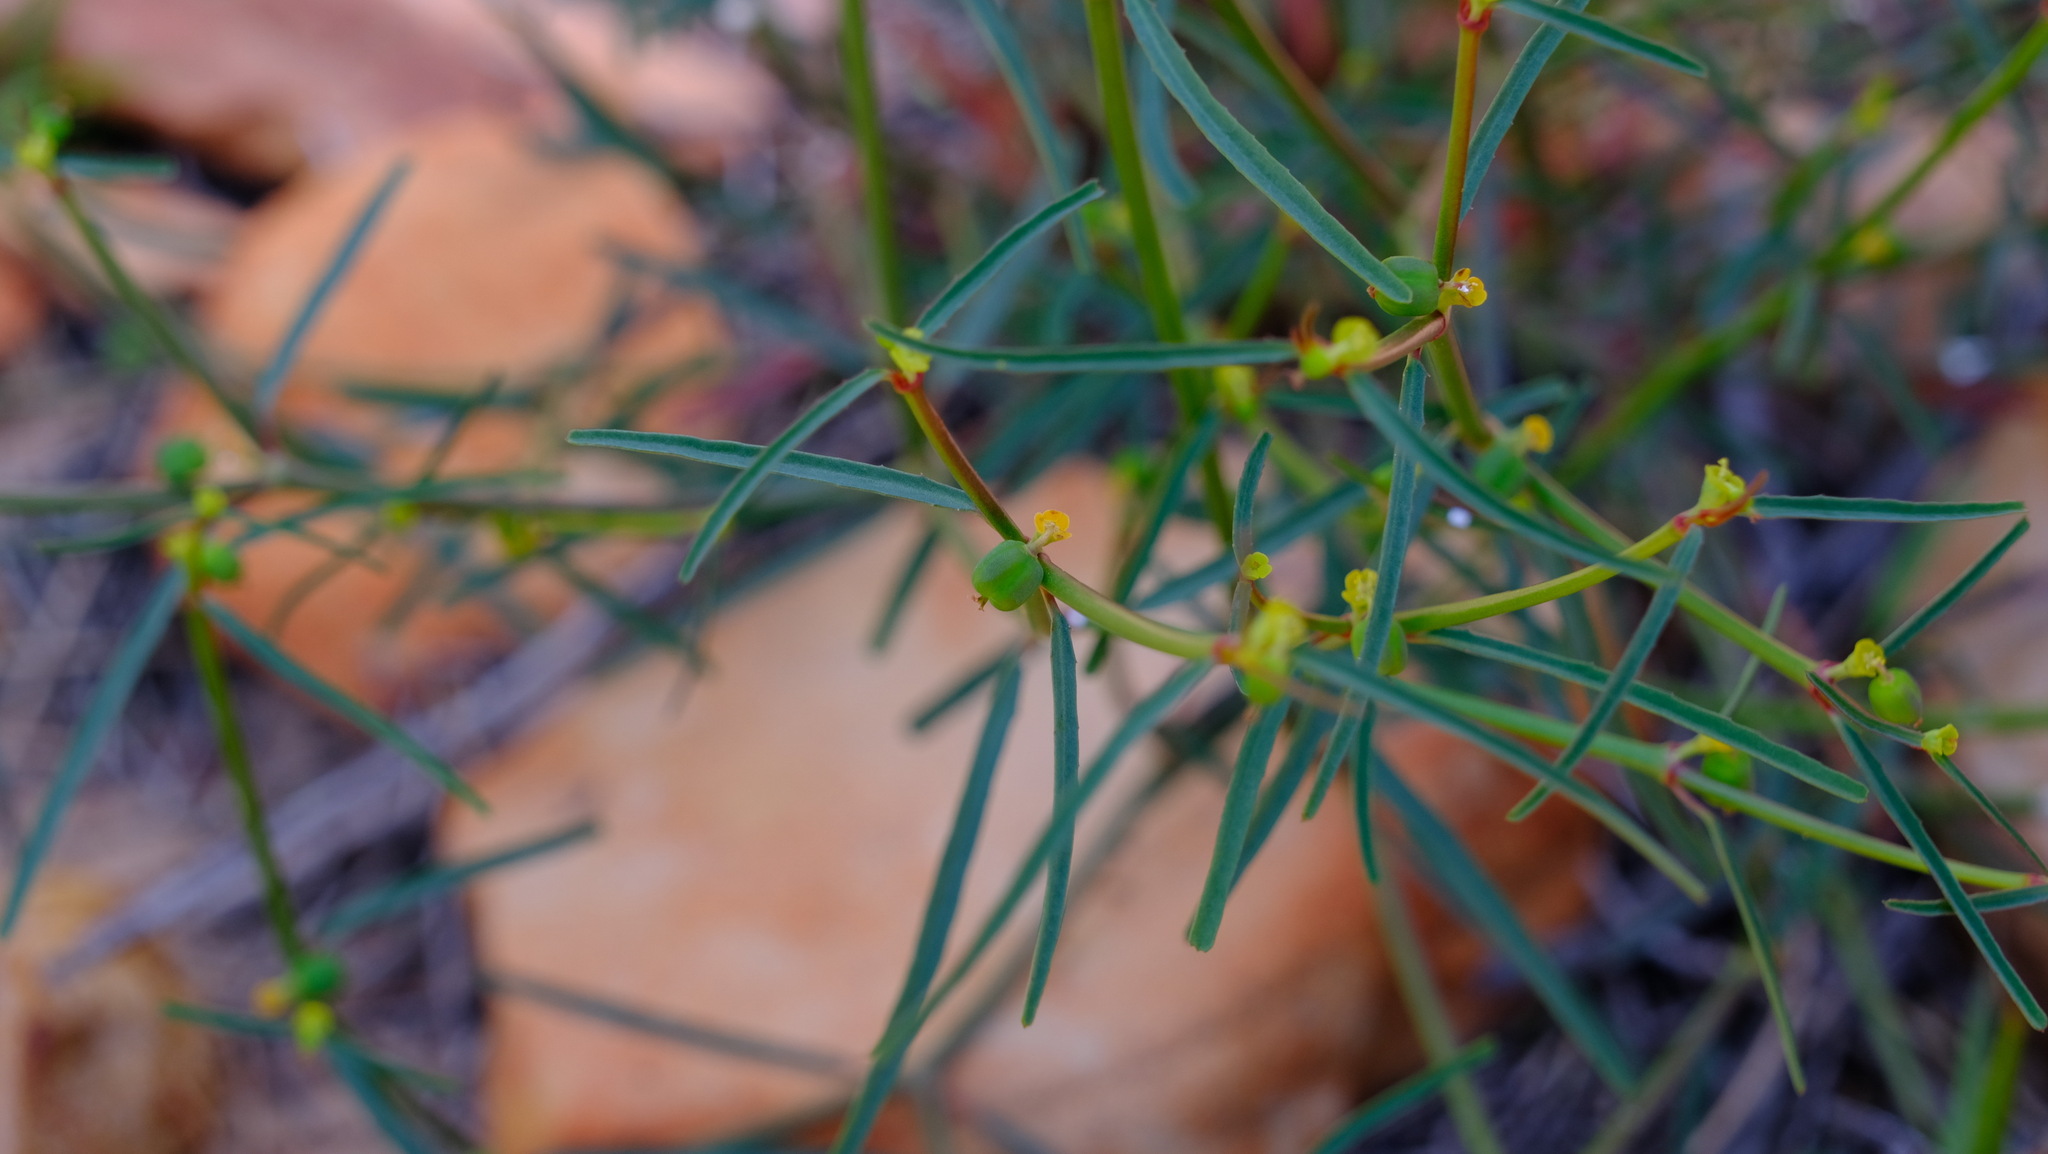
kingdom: Plantae
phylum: Tracheophyta
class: Magnoliopsida
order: Malpighiales
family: Euphorbiaceae
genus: Euphorbia
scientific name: Euphorbia tannensis
